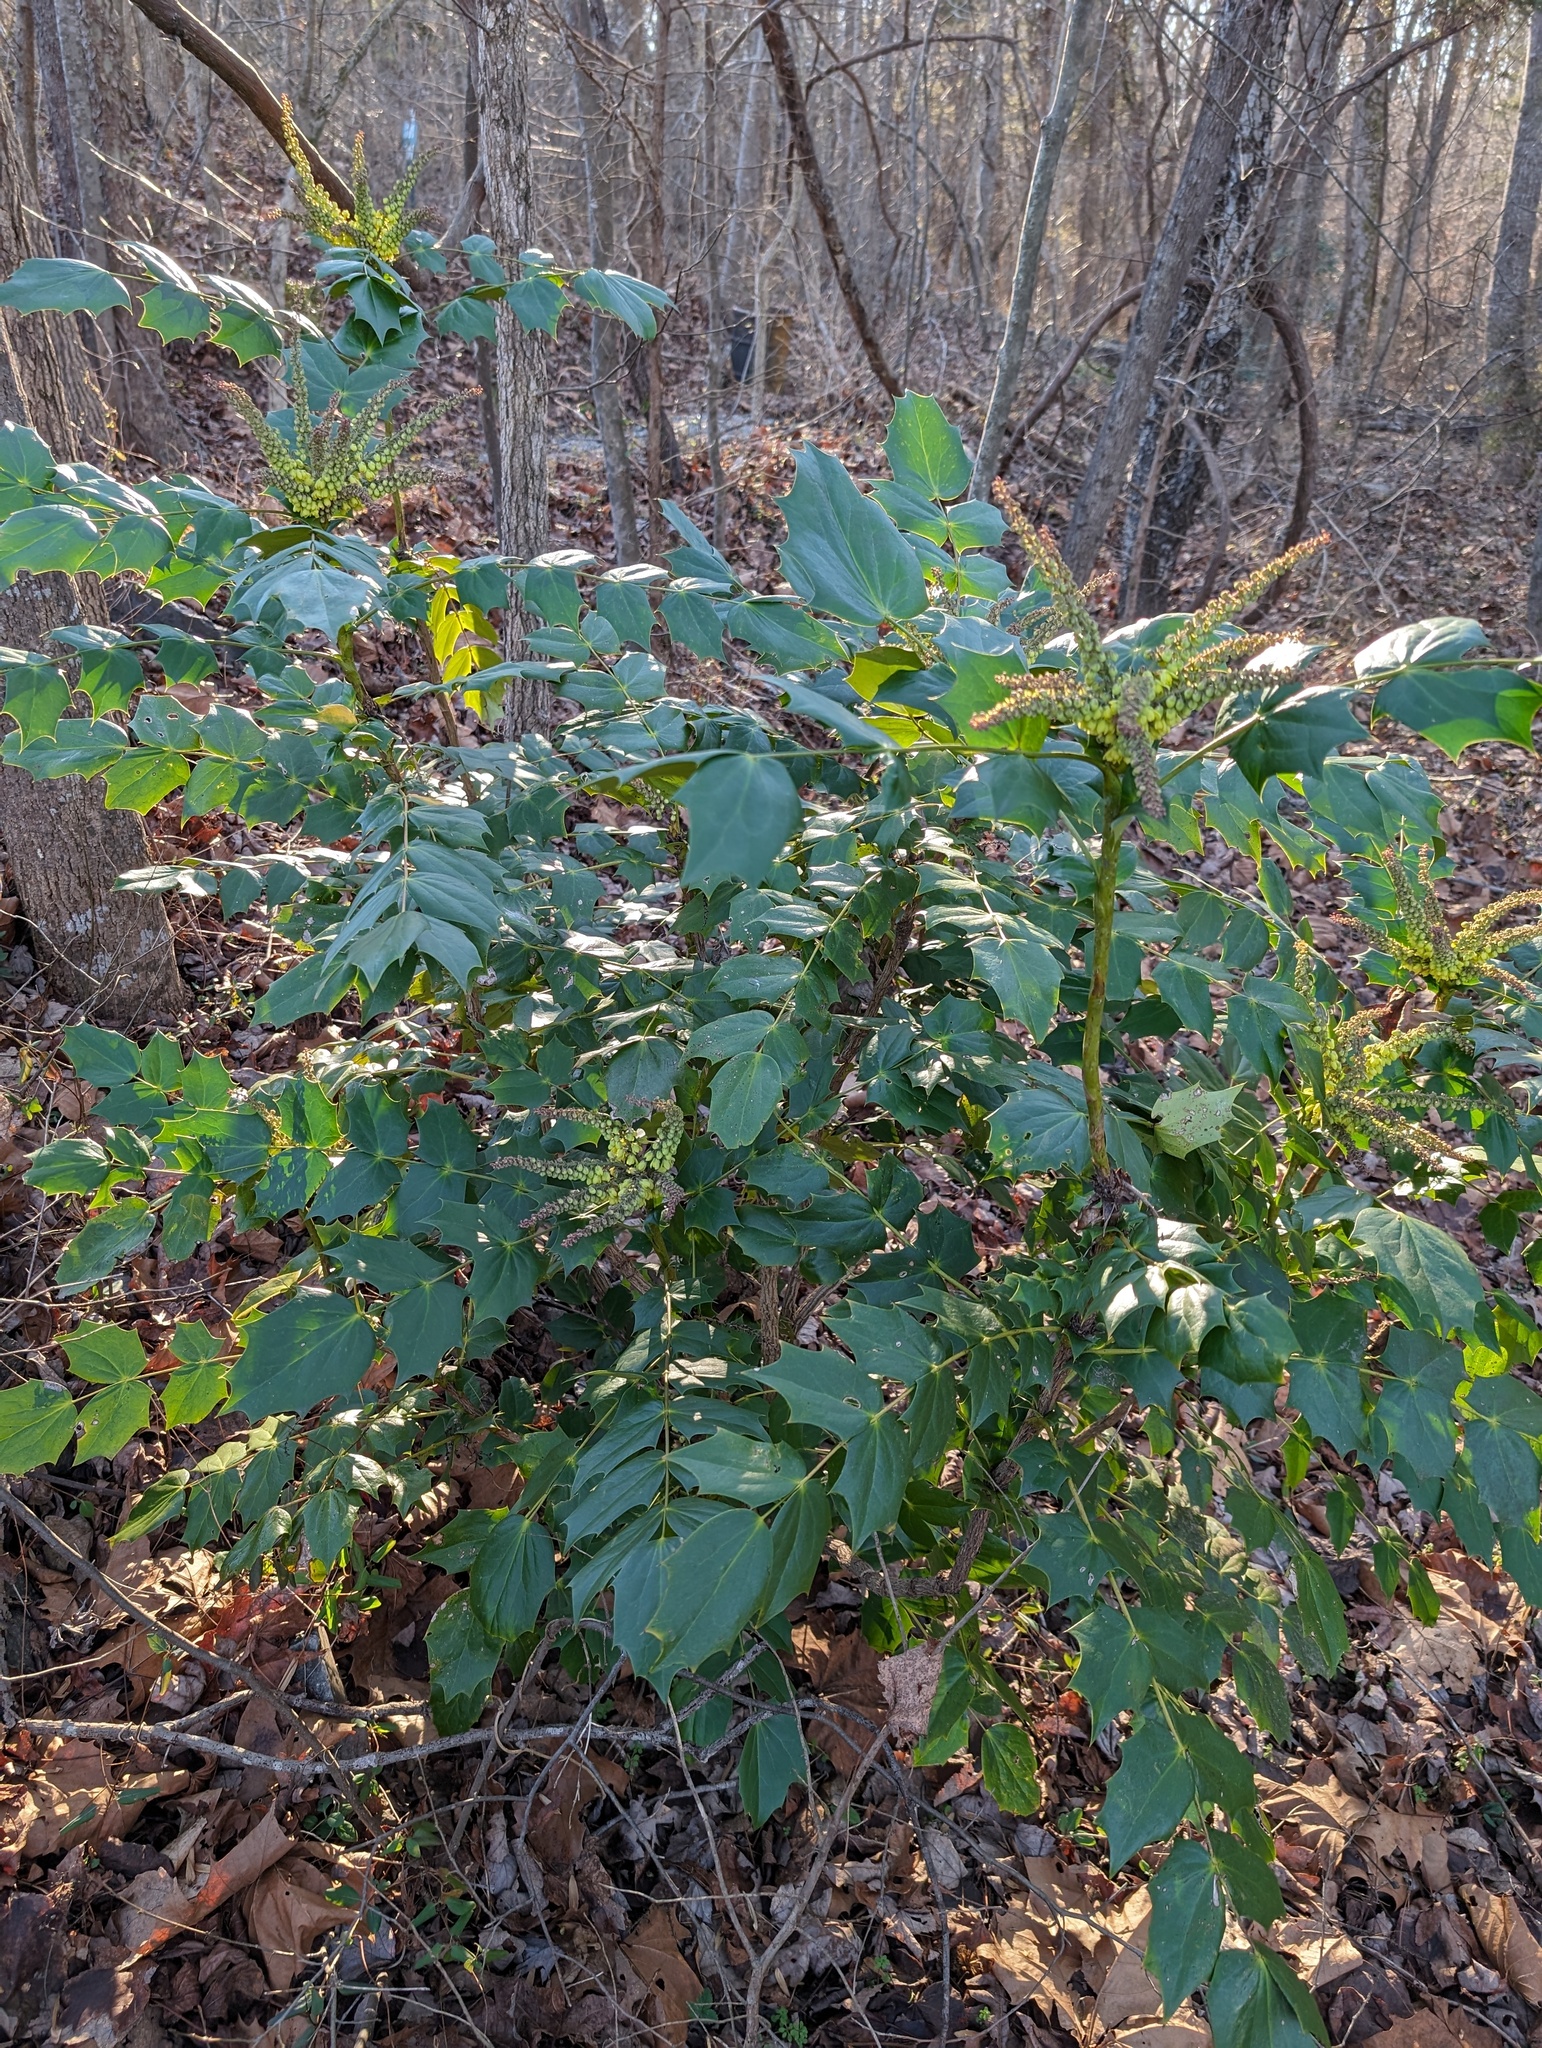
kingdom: Plantae
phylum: Tracheophyta
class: Magnoliopsida
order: Ranunculales
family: Berberidaceae
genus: Mahonia
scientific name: Mahonia bealei
